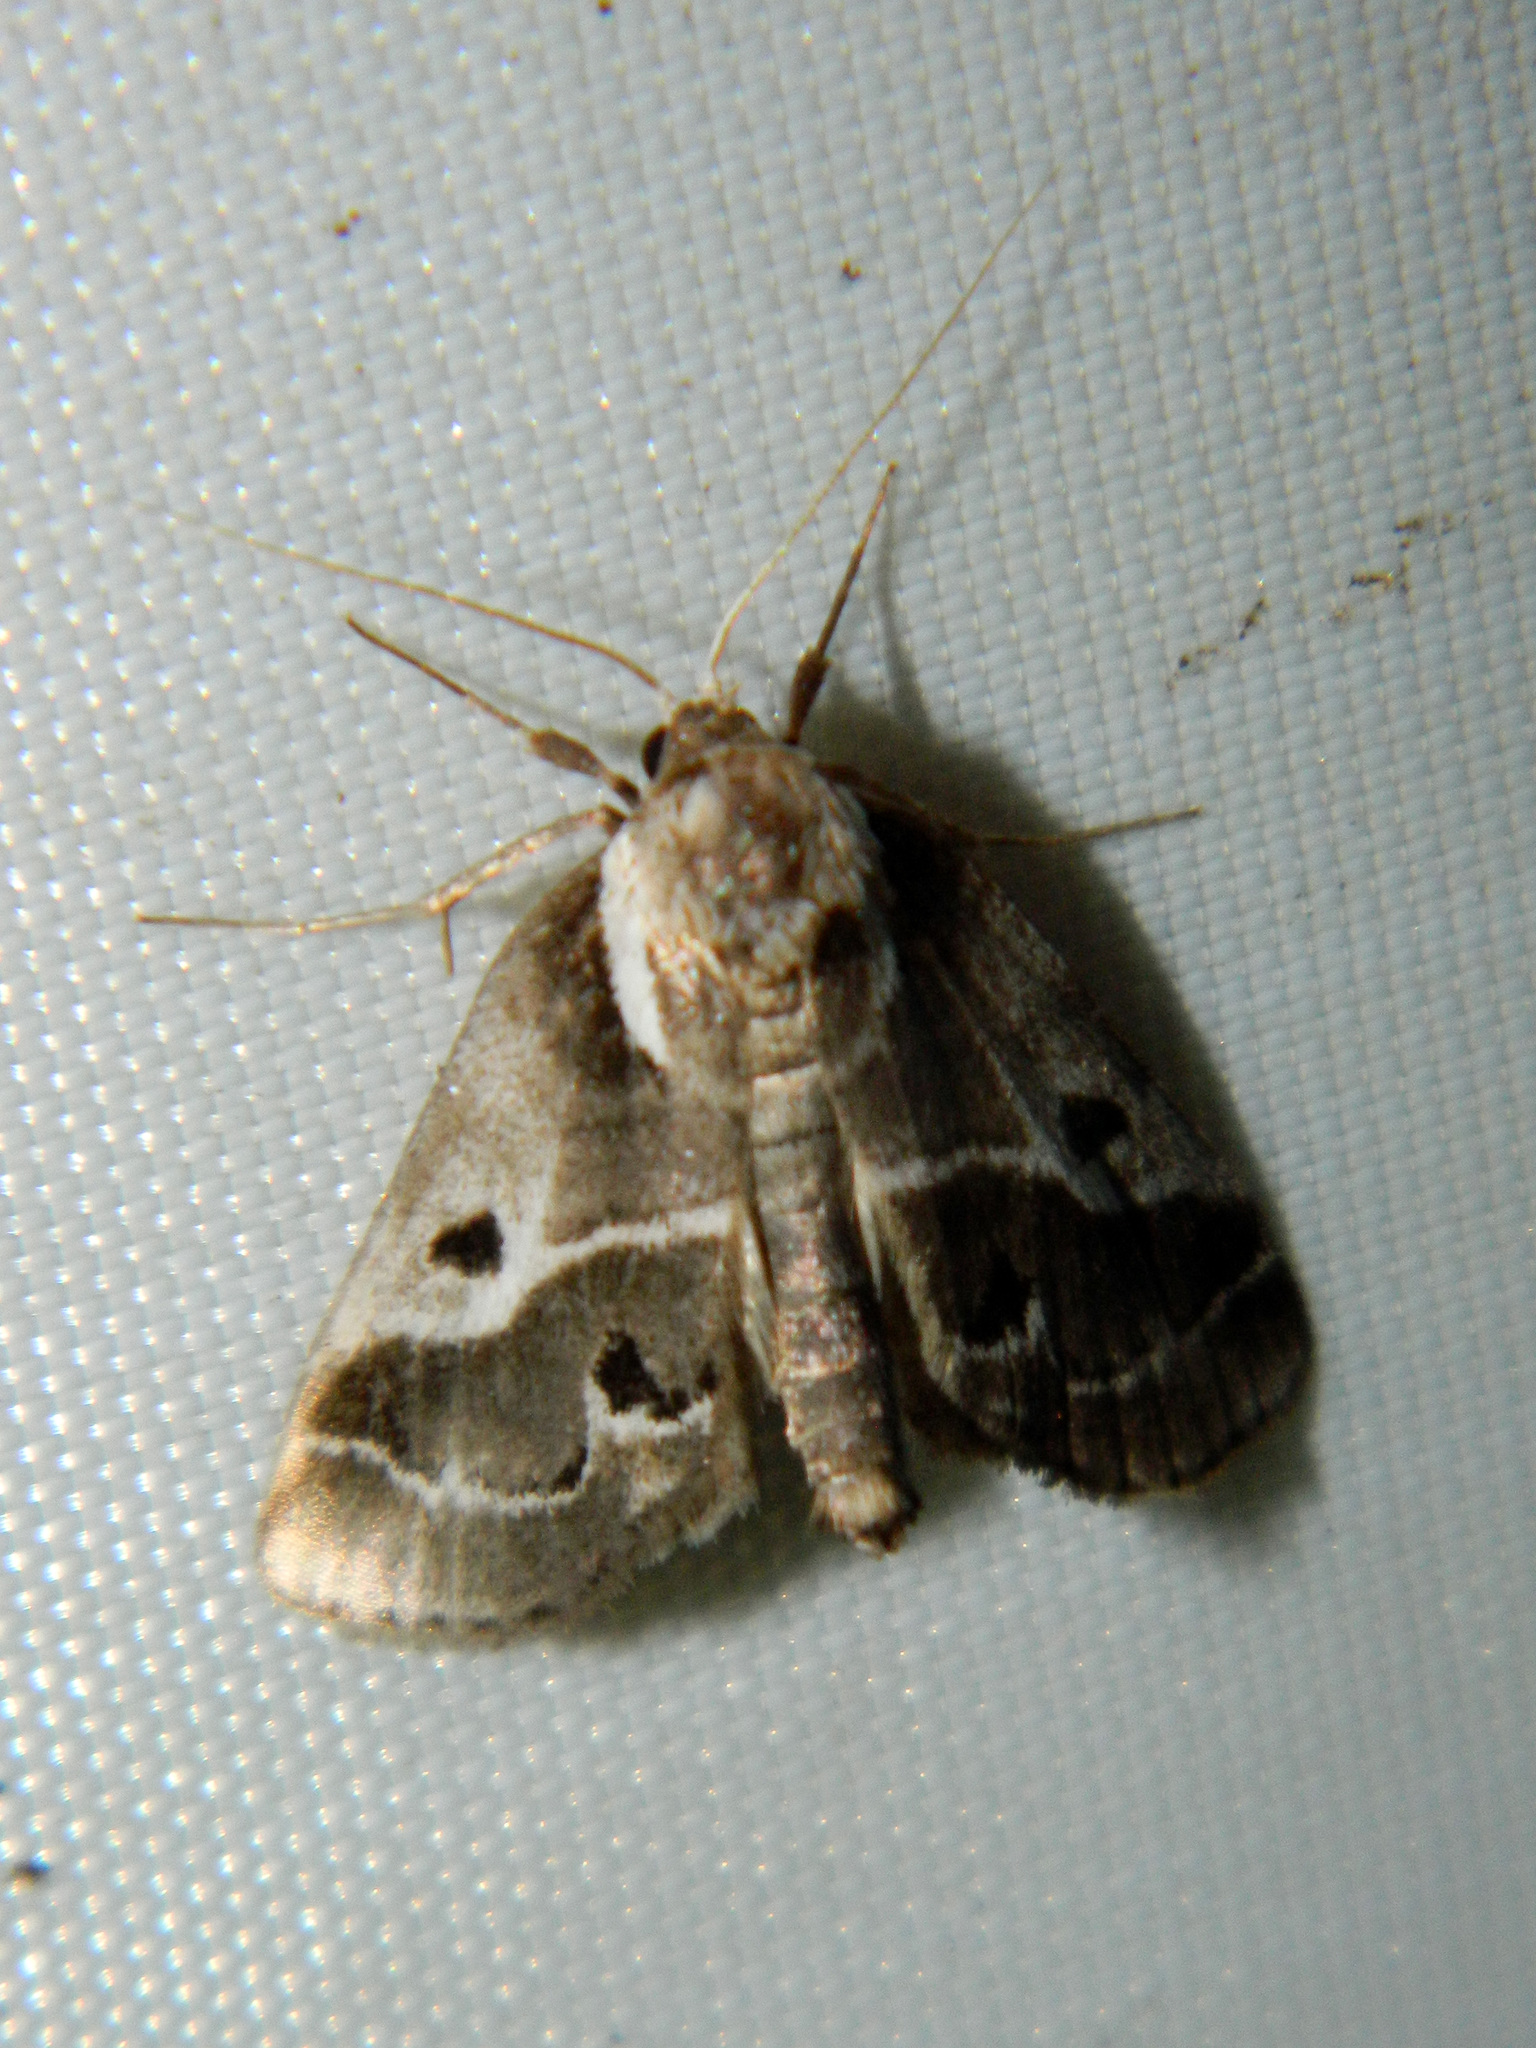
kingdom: Animalia
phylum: Arthropoda
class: Insecta
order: Lepidoptera
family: Nolidae
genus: Baileya
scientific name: Baileya doubledayi
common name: Doubleday's baileya moth
